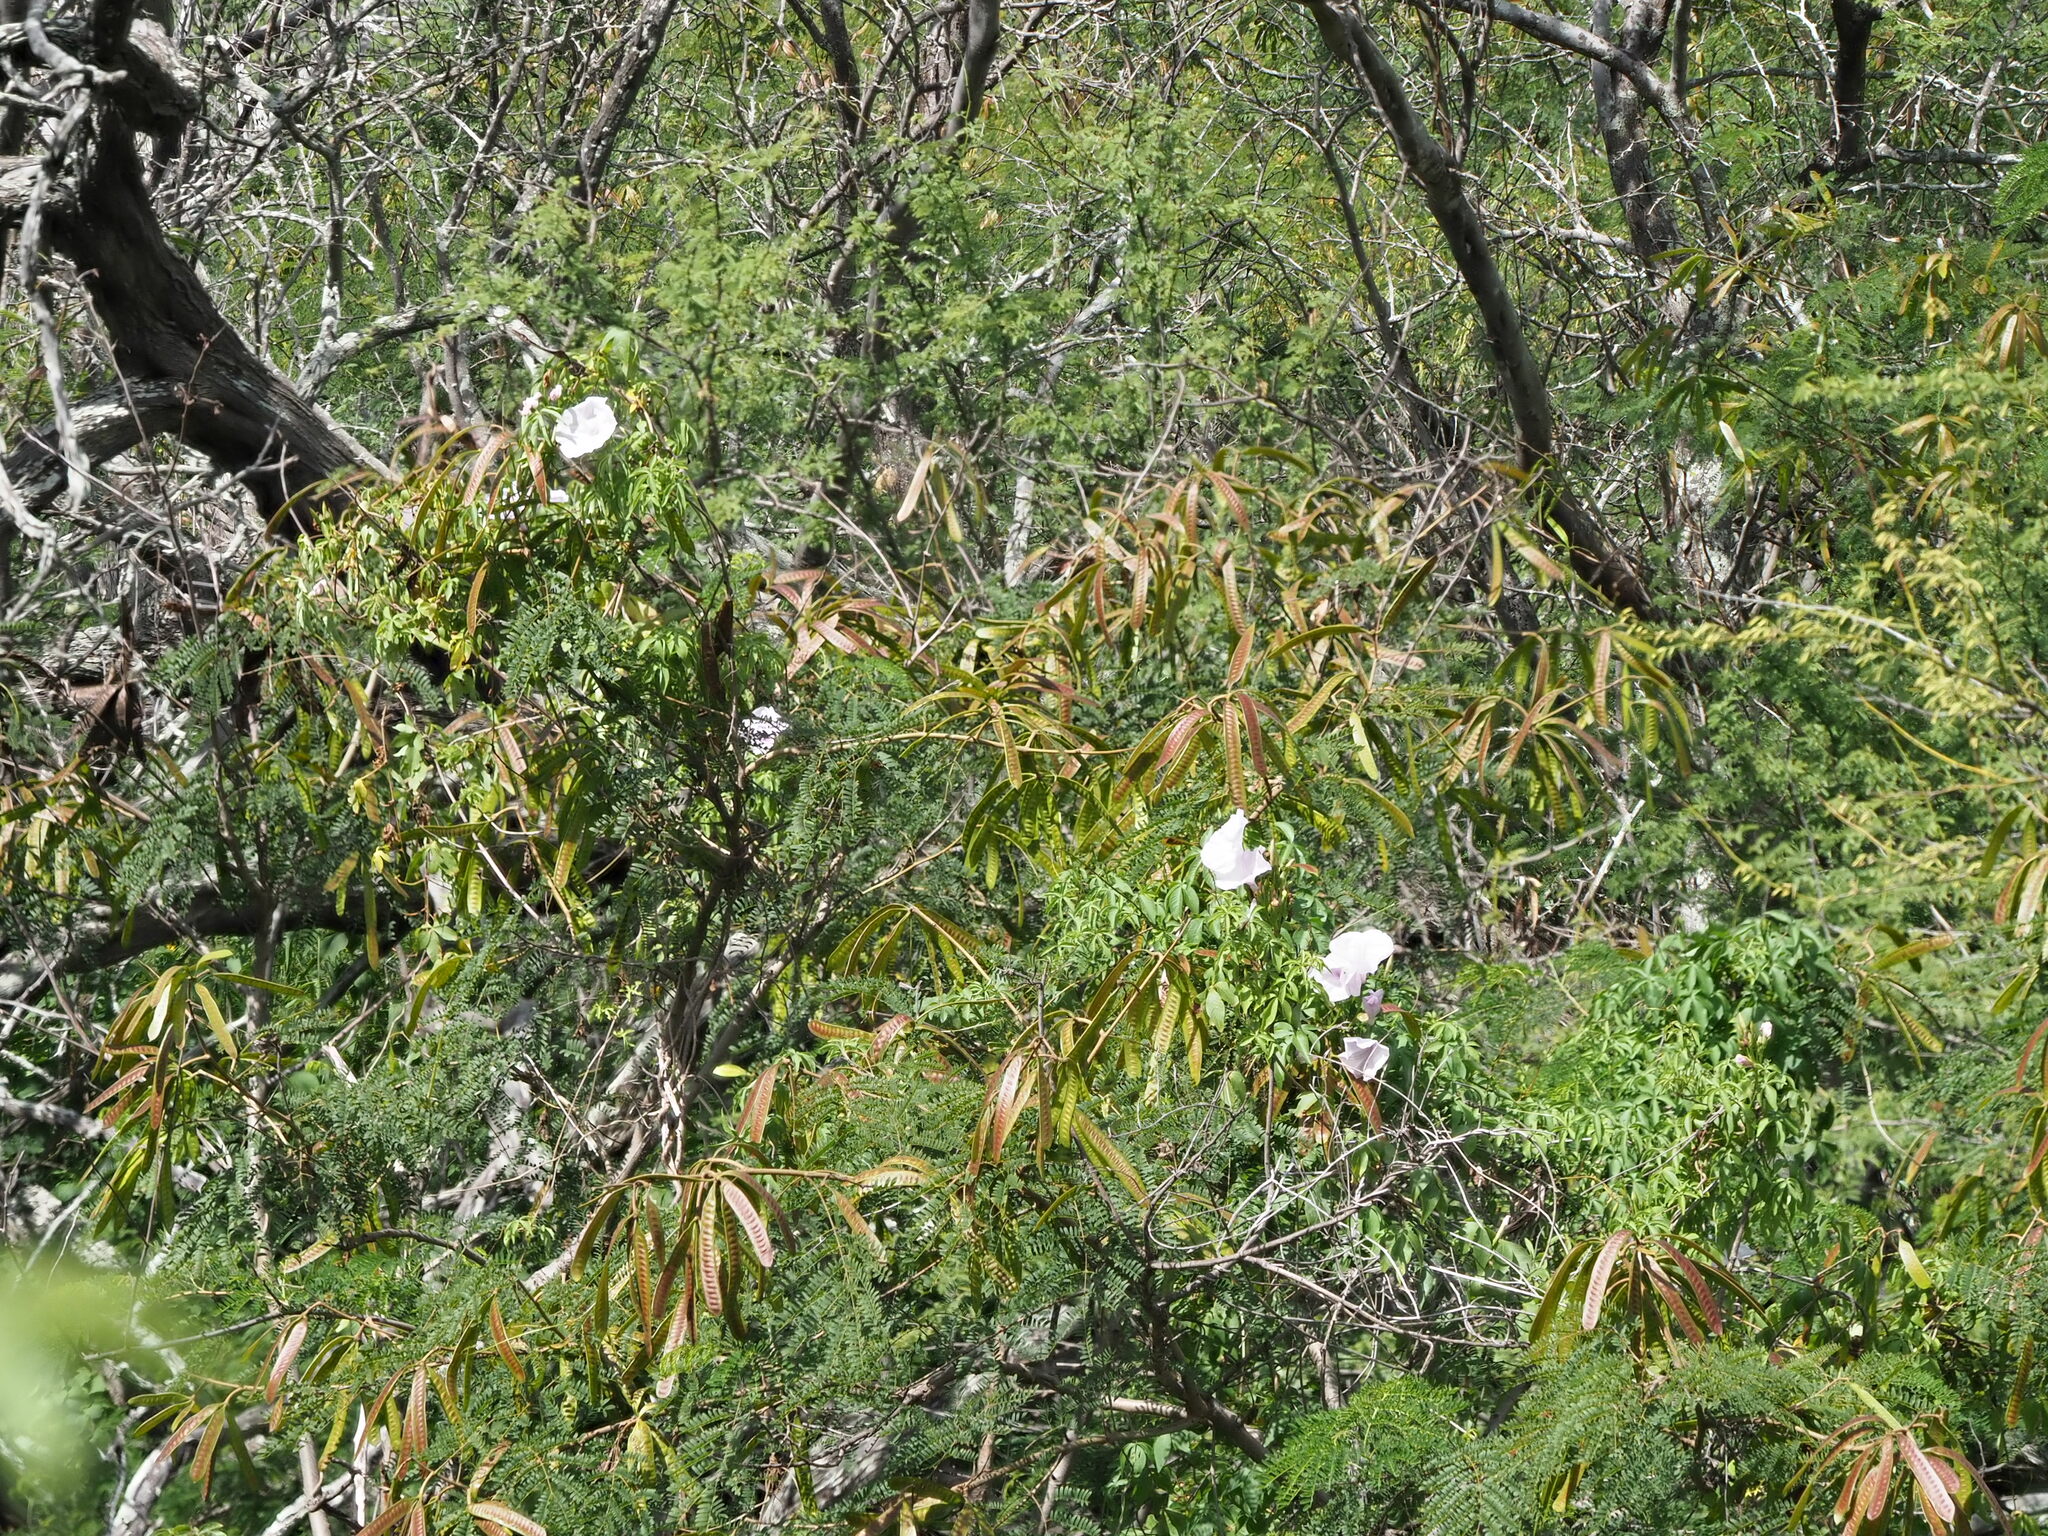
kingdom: Plantae
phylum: Tracheophyta
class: Magnoliopsida
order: Solanales
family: Convolvulaceae
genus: Ipomoea
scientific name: Ipomoea cairica
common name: Mile a minute vine
